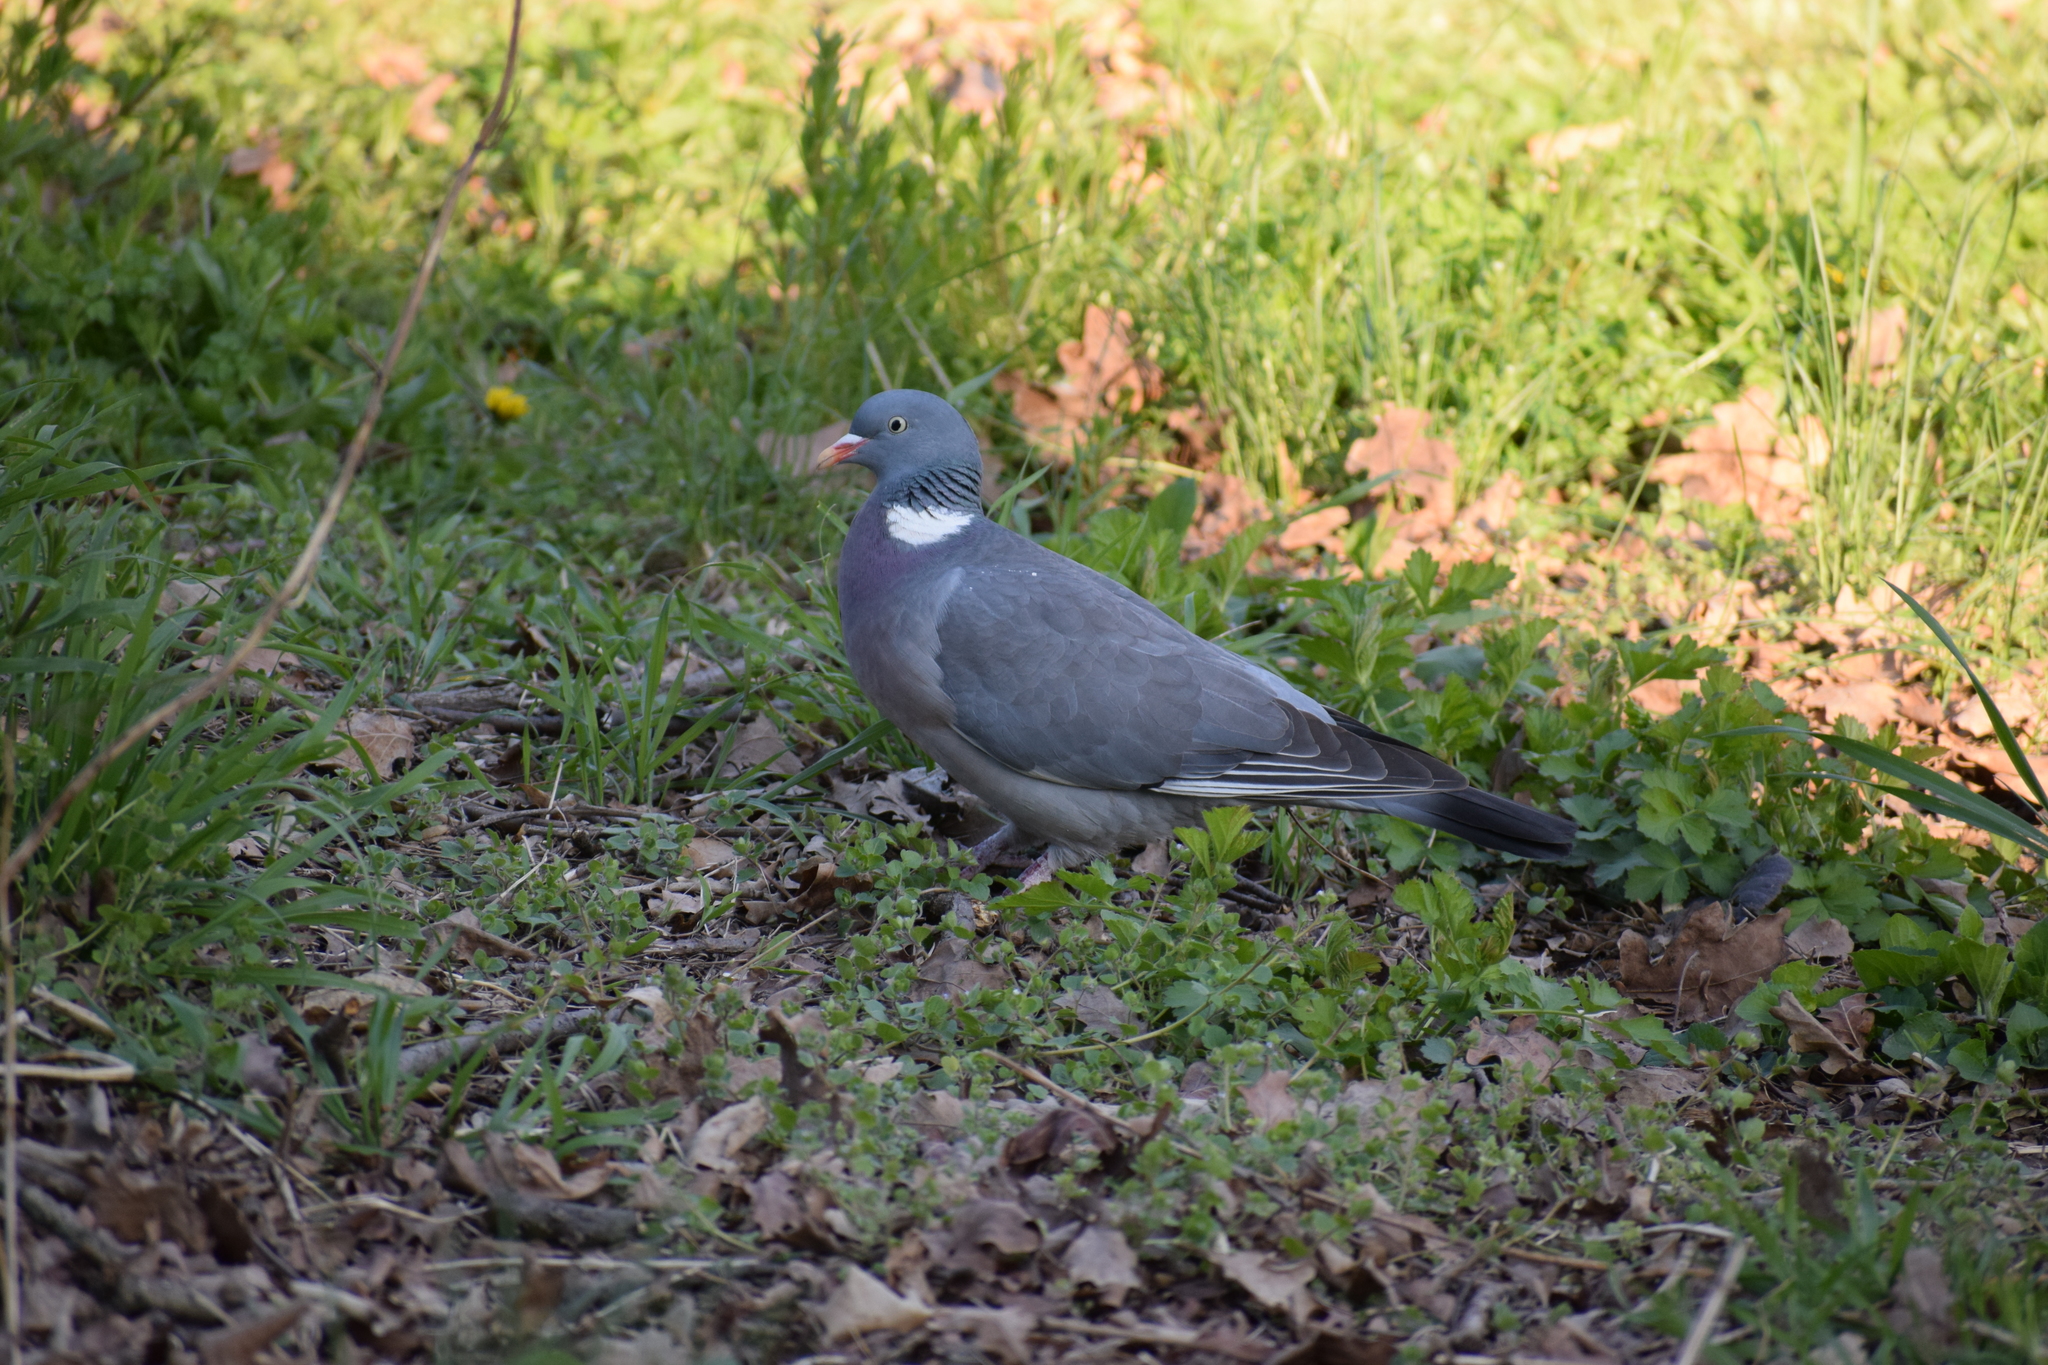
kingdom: Animalia
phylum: Chordata
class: Aves
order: Columbiformes
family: Columbidae
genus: Columba
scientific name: Columba palumbus
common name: Common wood pigeon
